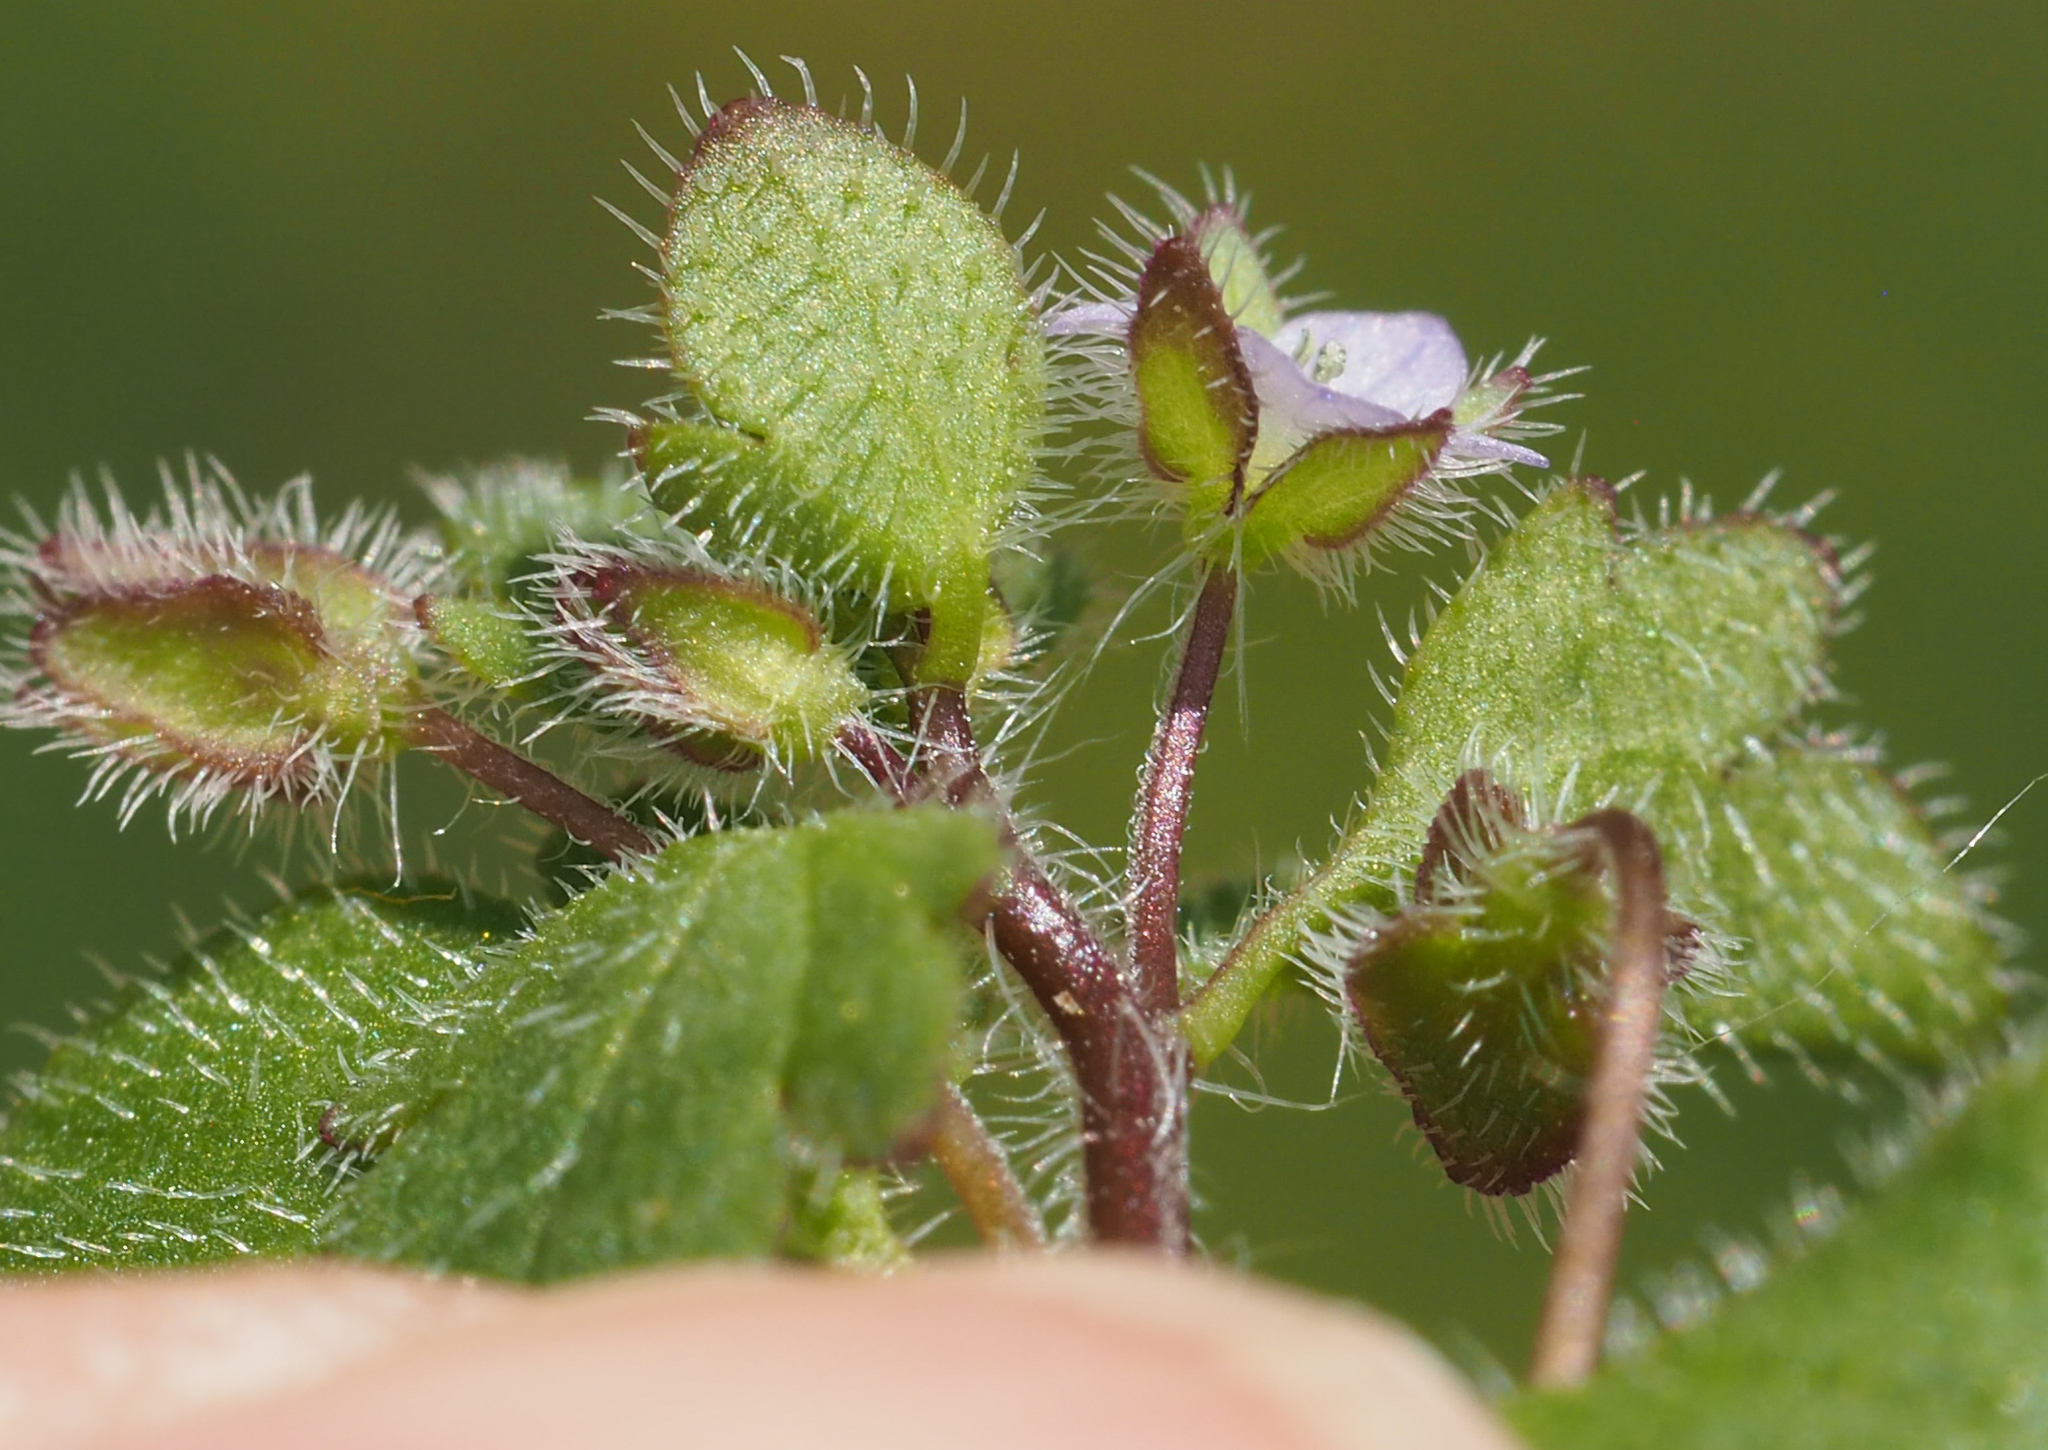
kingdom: Plantae
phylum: Tracheophyta
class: Magnoliopsida
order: Lamiales
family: Plantaginaceae
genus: Veronica
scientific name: Veronica sublobata
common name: False ivy-leaved speedwell
